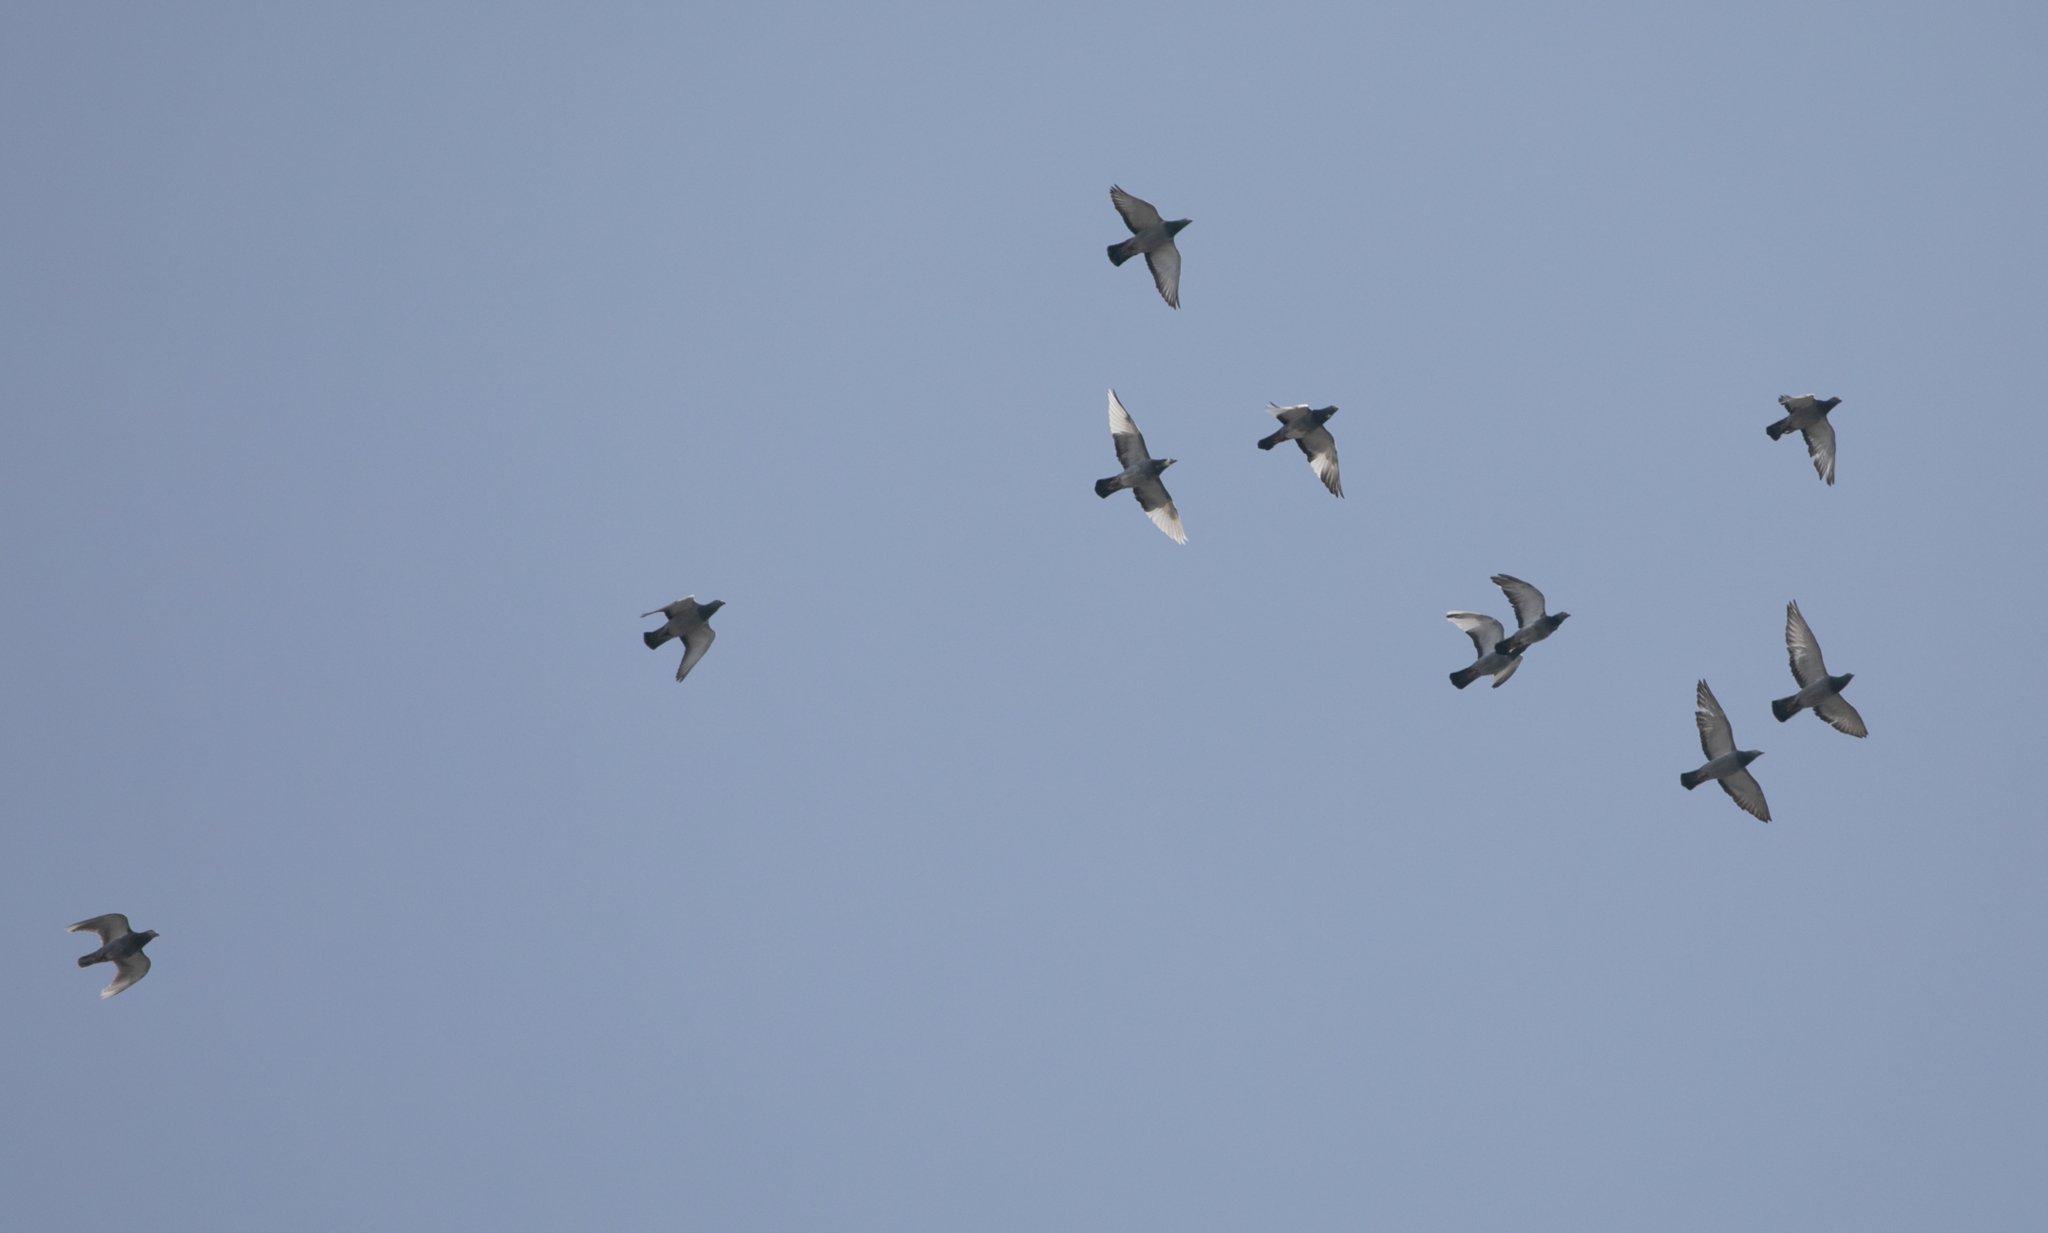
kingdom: Animalia
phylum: Chordata
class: Aves
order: Columbiformes
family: Columbidae
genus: Columba
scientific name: Columba livia
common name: Rock pigeon
